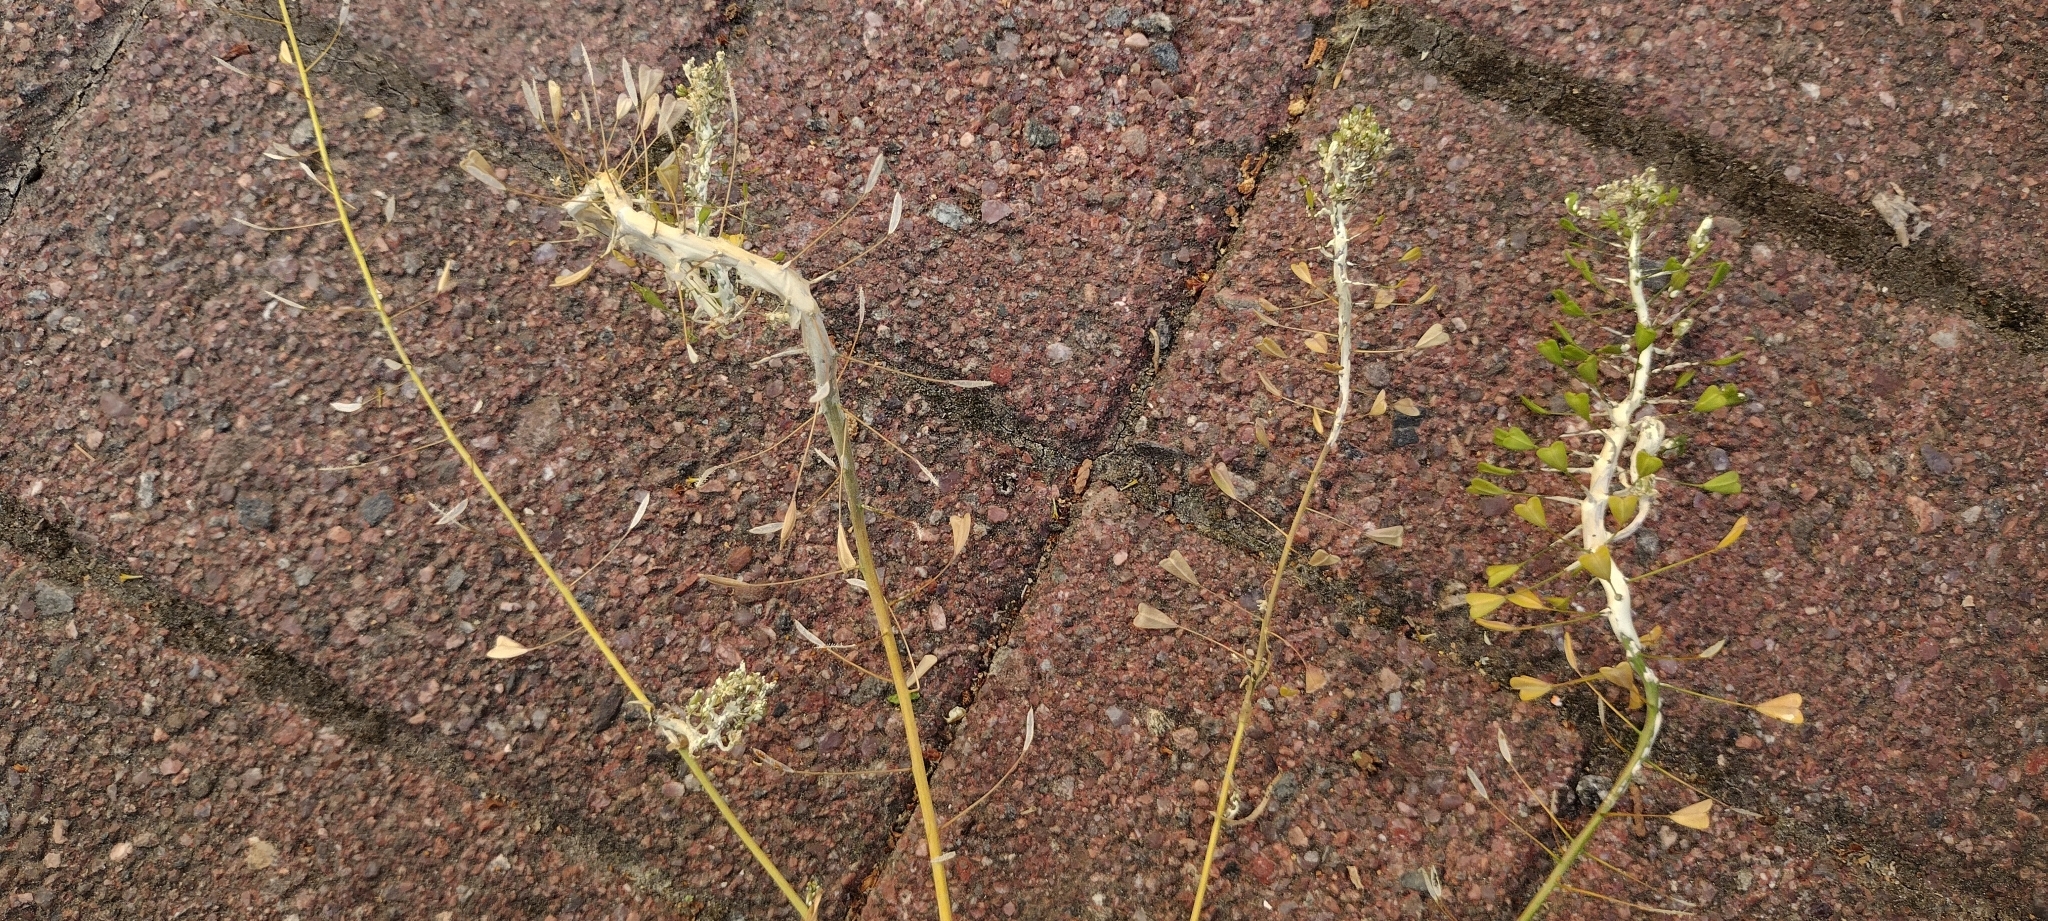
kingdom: Chromista
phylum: Oomycota
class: Peronosporea
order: Albuginales
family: Albuginaceae
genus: Albugo
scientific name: Albugo candida
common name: Crucifer white blister
